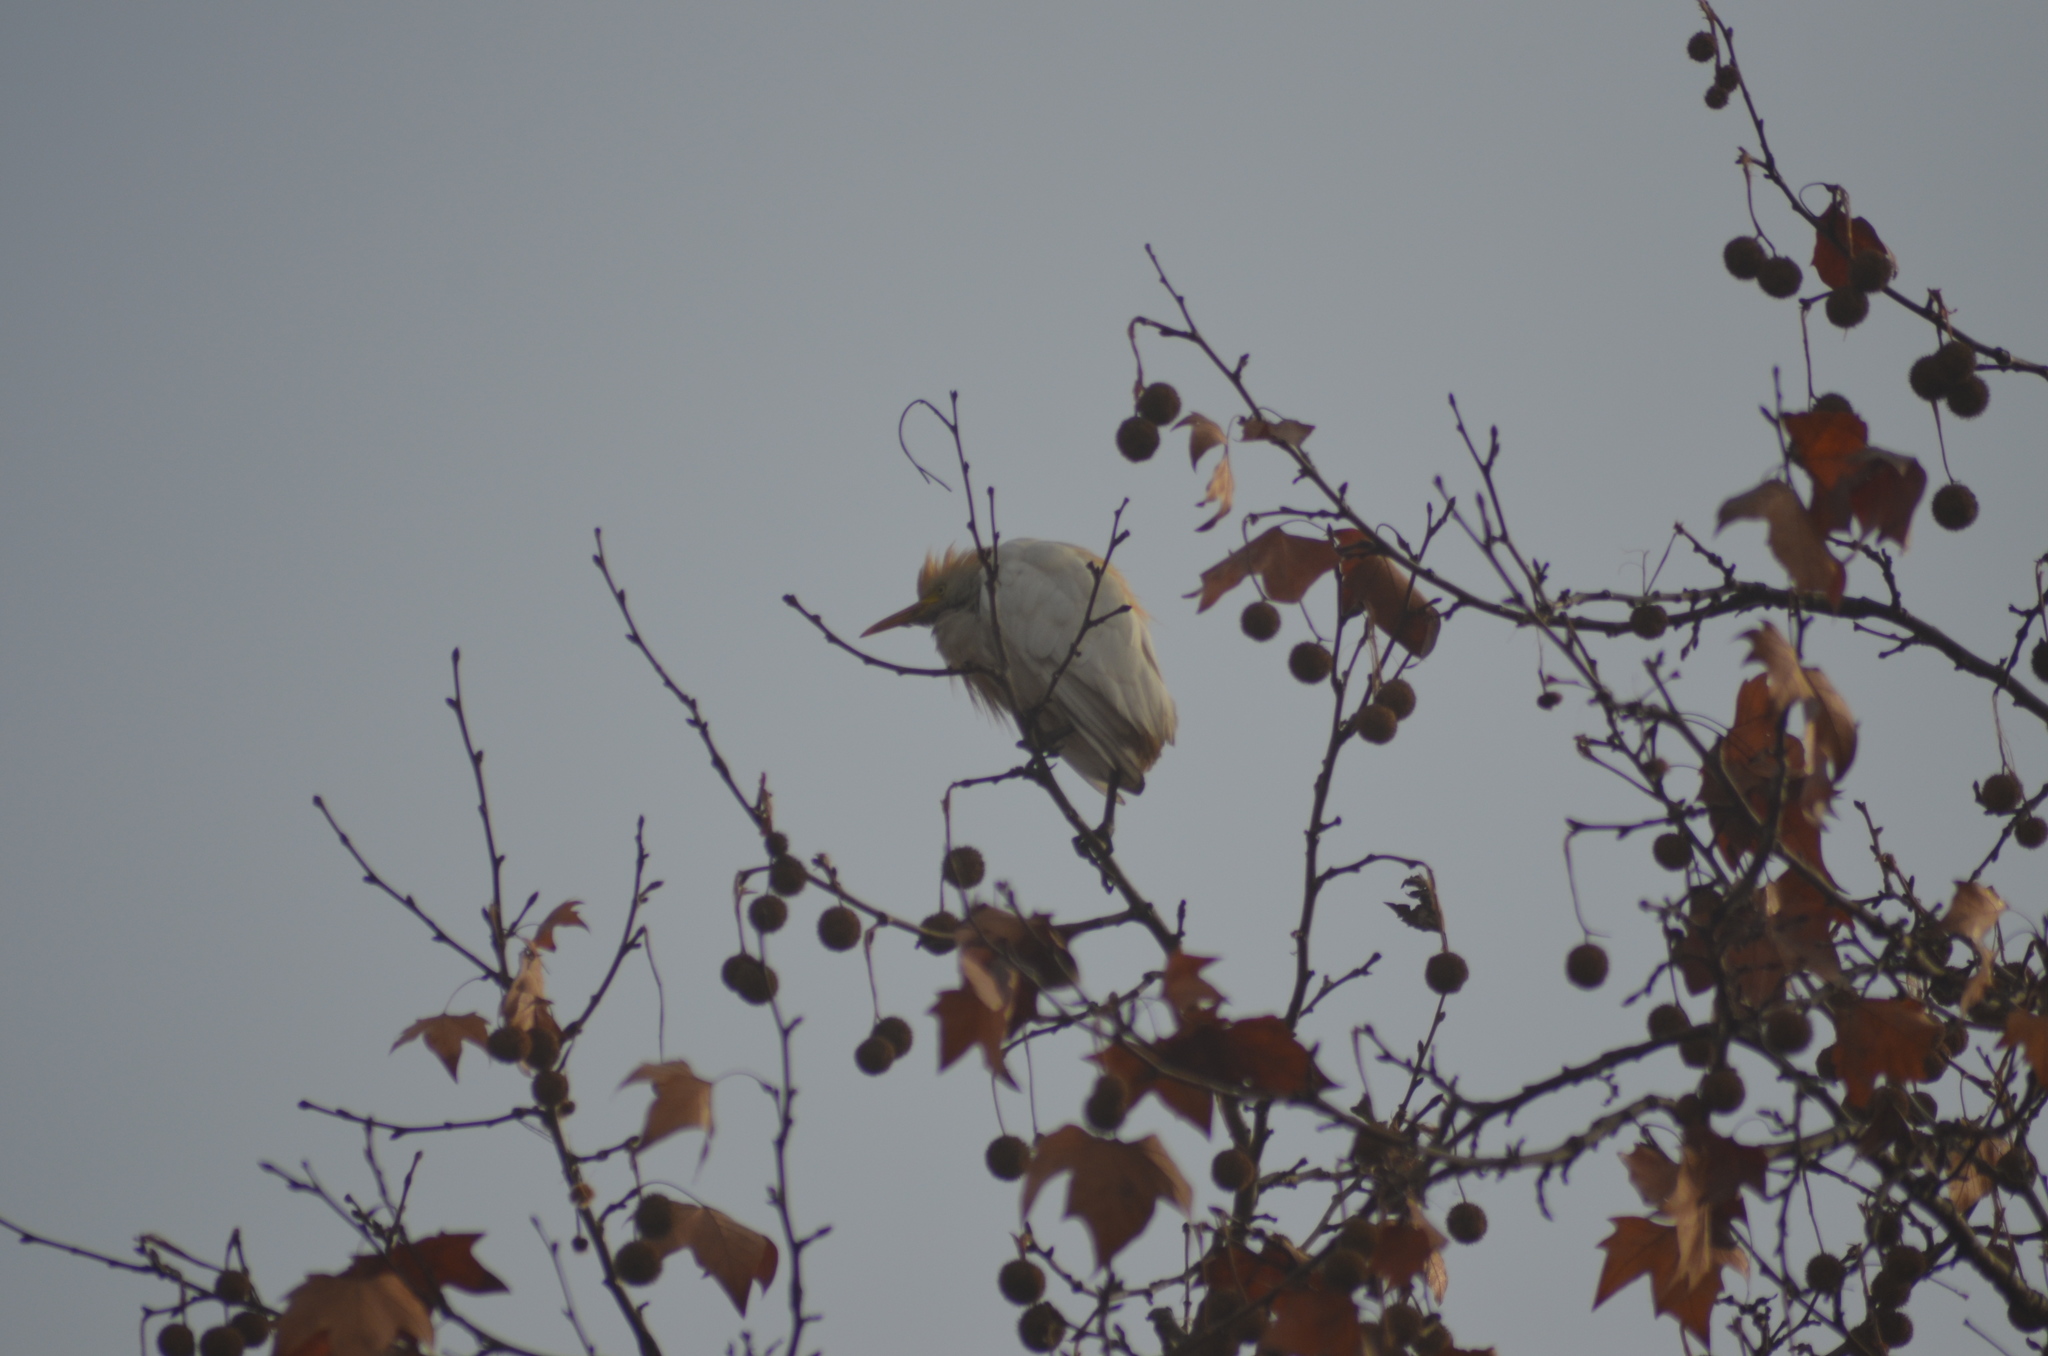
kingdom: Animalia
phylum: Chordata
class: Aves
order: Pelecaniformes
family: Ardeidae
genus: Bubulcus
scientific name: Bubulcus ibis
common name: Cattle egret
